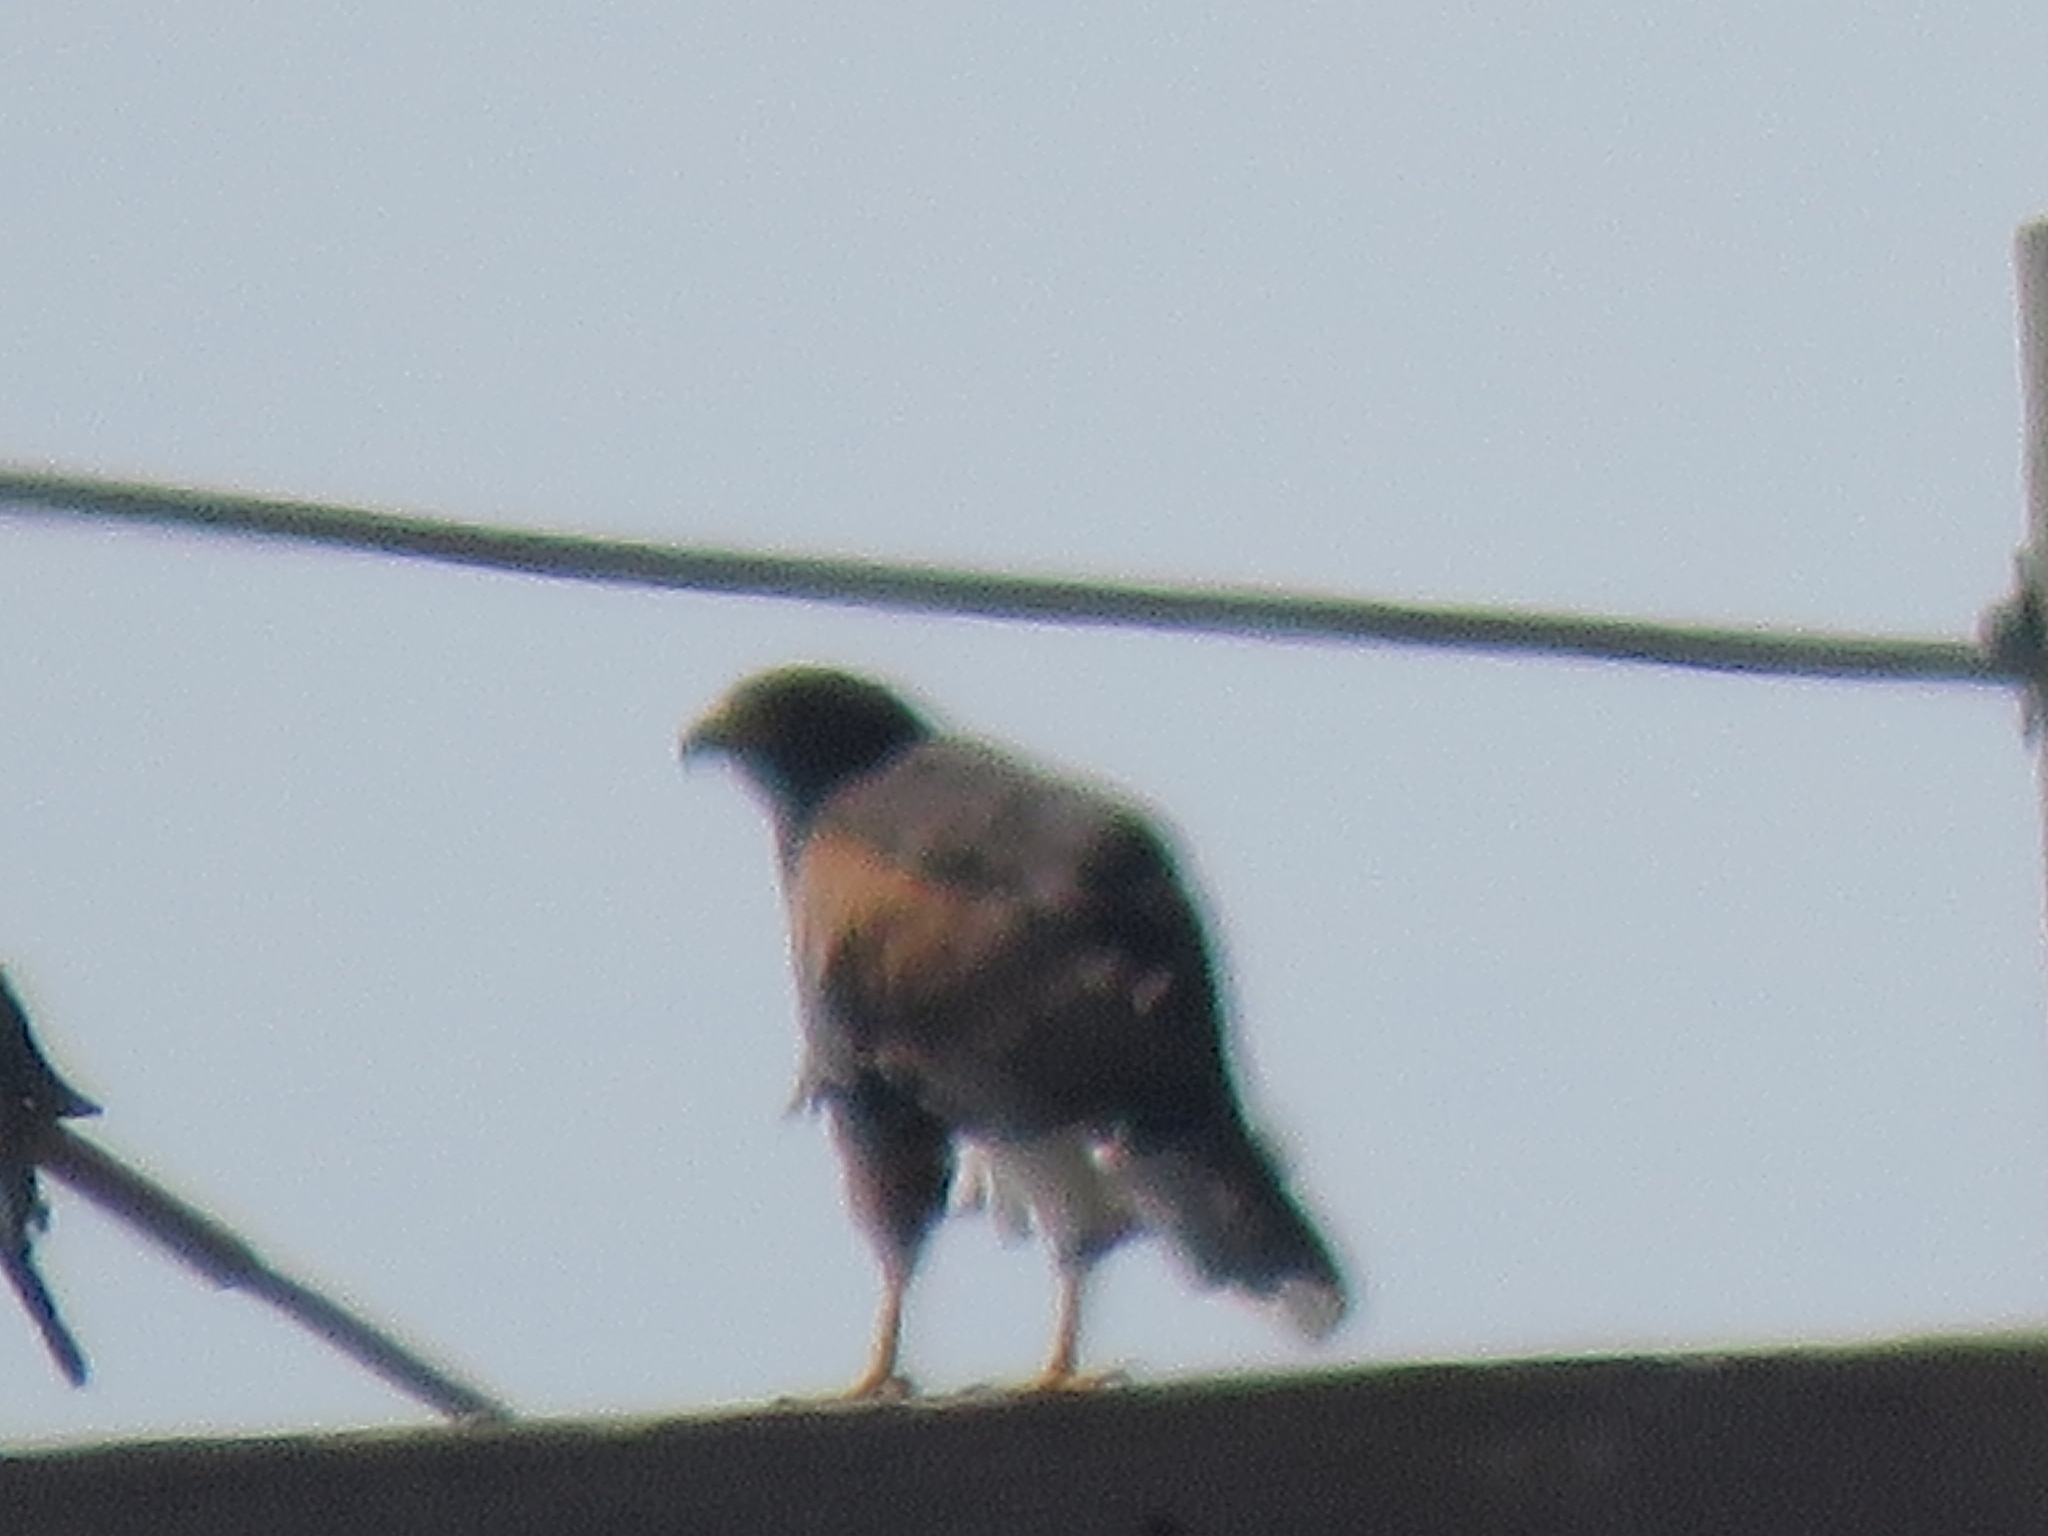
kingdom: Animalia
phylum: Chordata
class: Aves
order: Accipitriformes
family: Accipitridae
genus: Parabuteo
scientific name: Parabuteo unicinctus
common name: Harris's hawk
